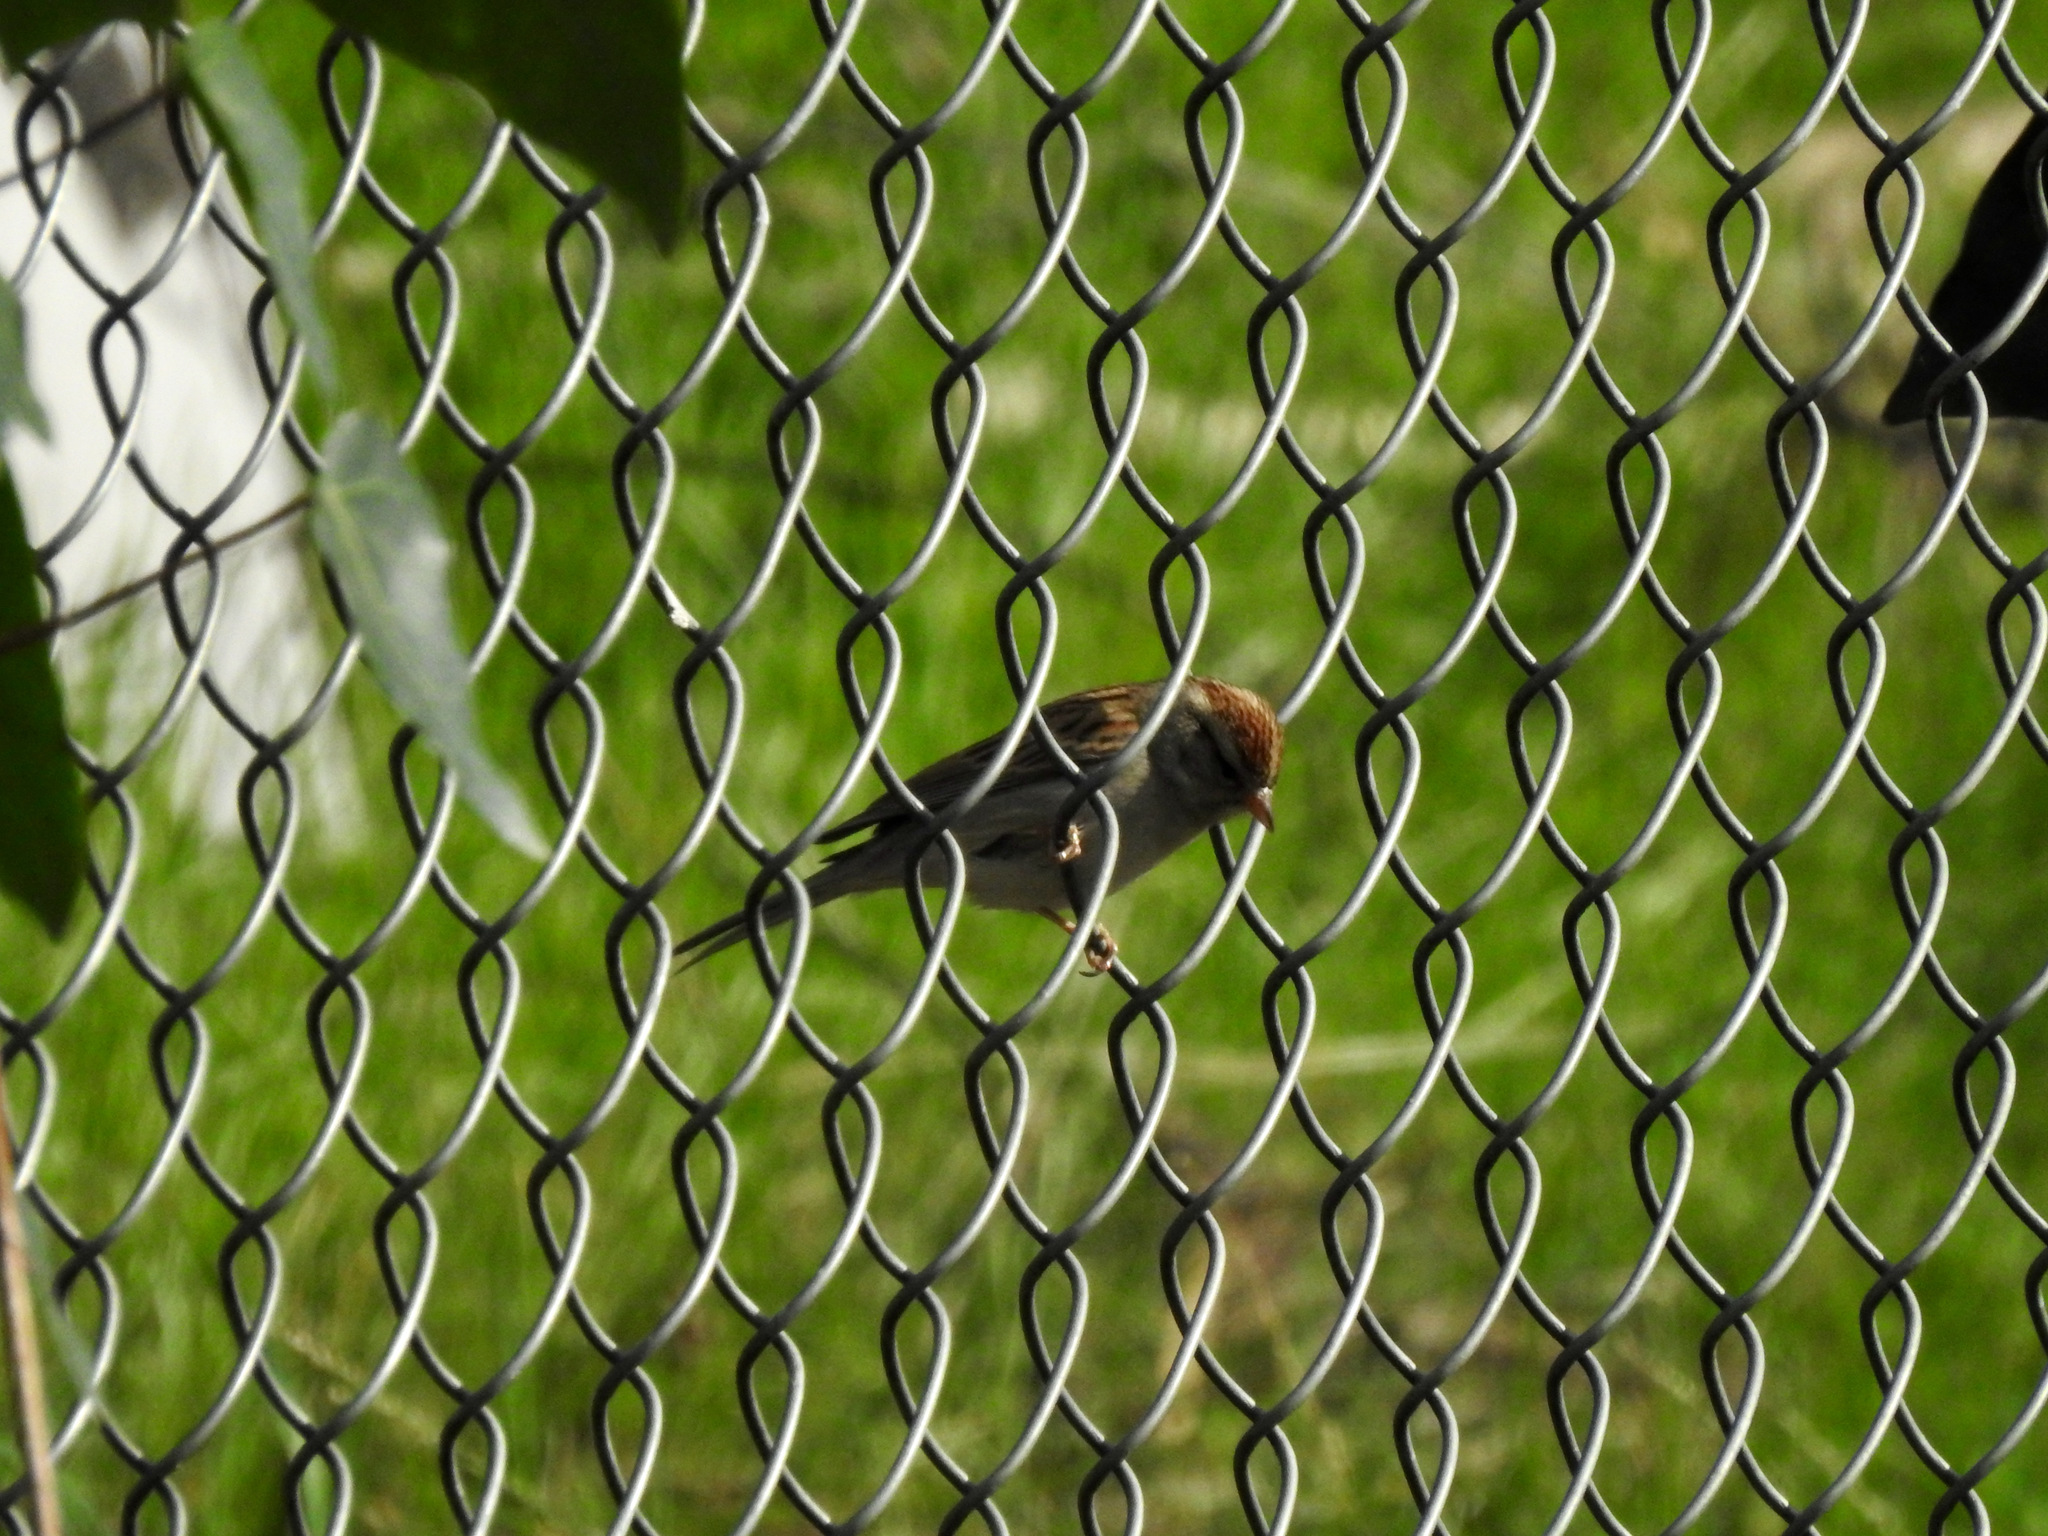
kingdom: Animalia
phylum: Chordata
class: Aves
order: Passeriformes
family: Passerellidae
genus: Spizella
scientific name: Spizella passerina
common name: Chipping sparrow
